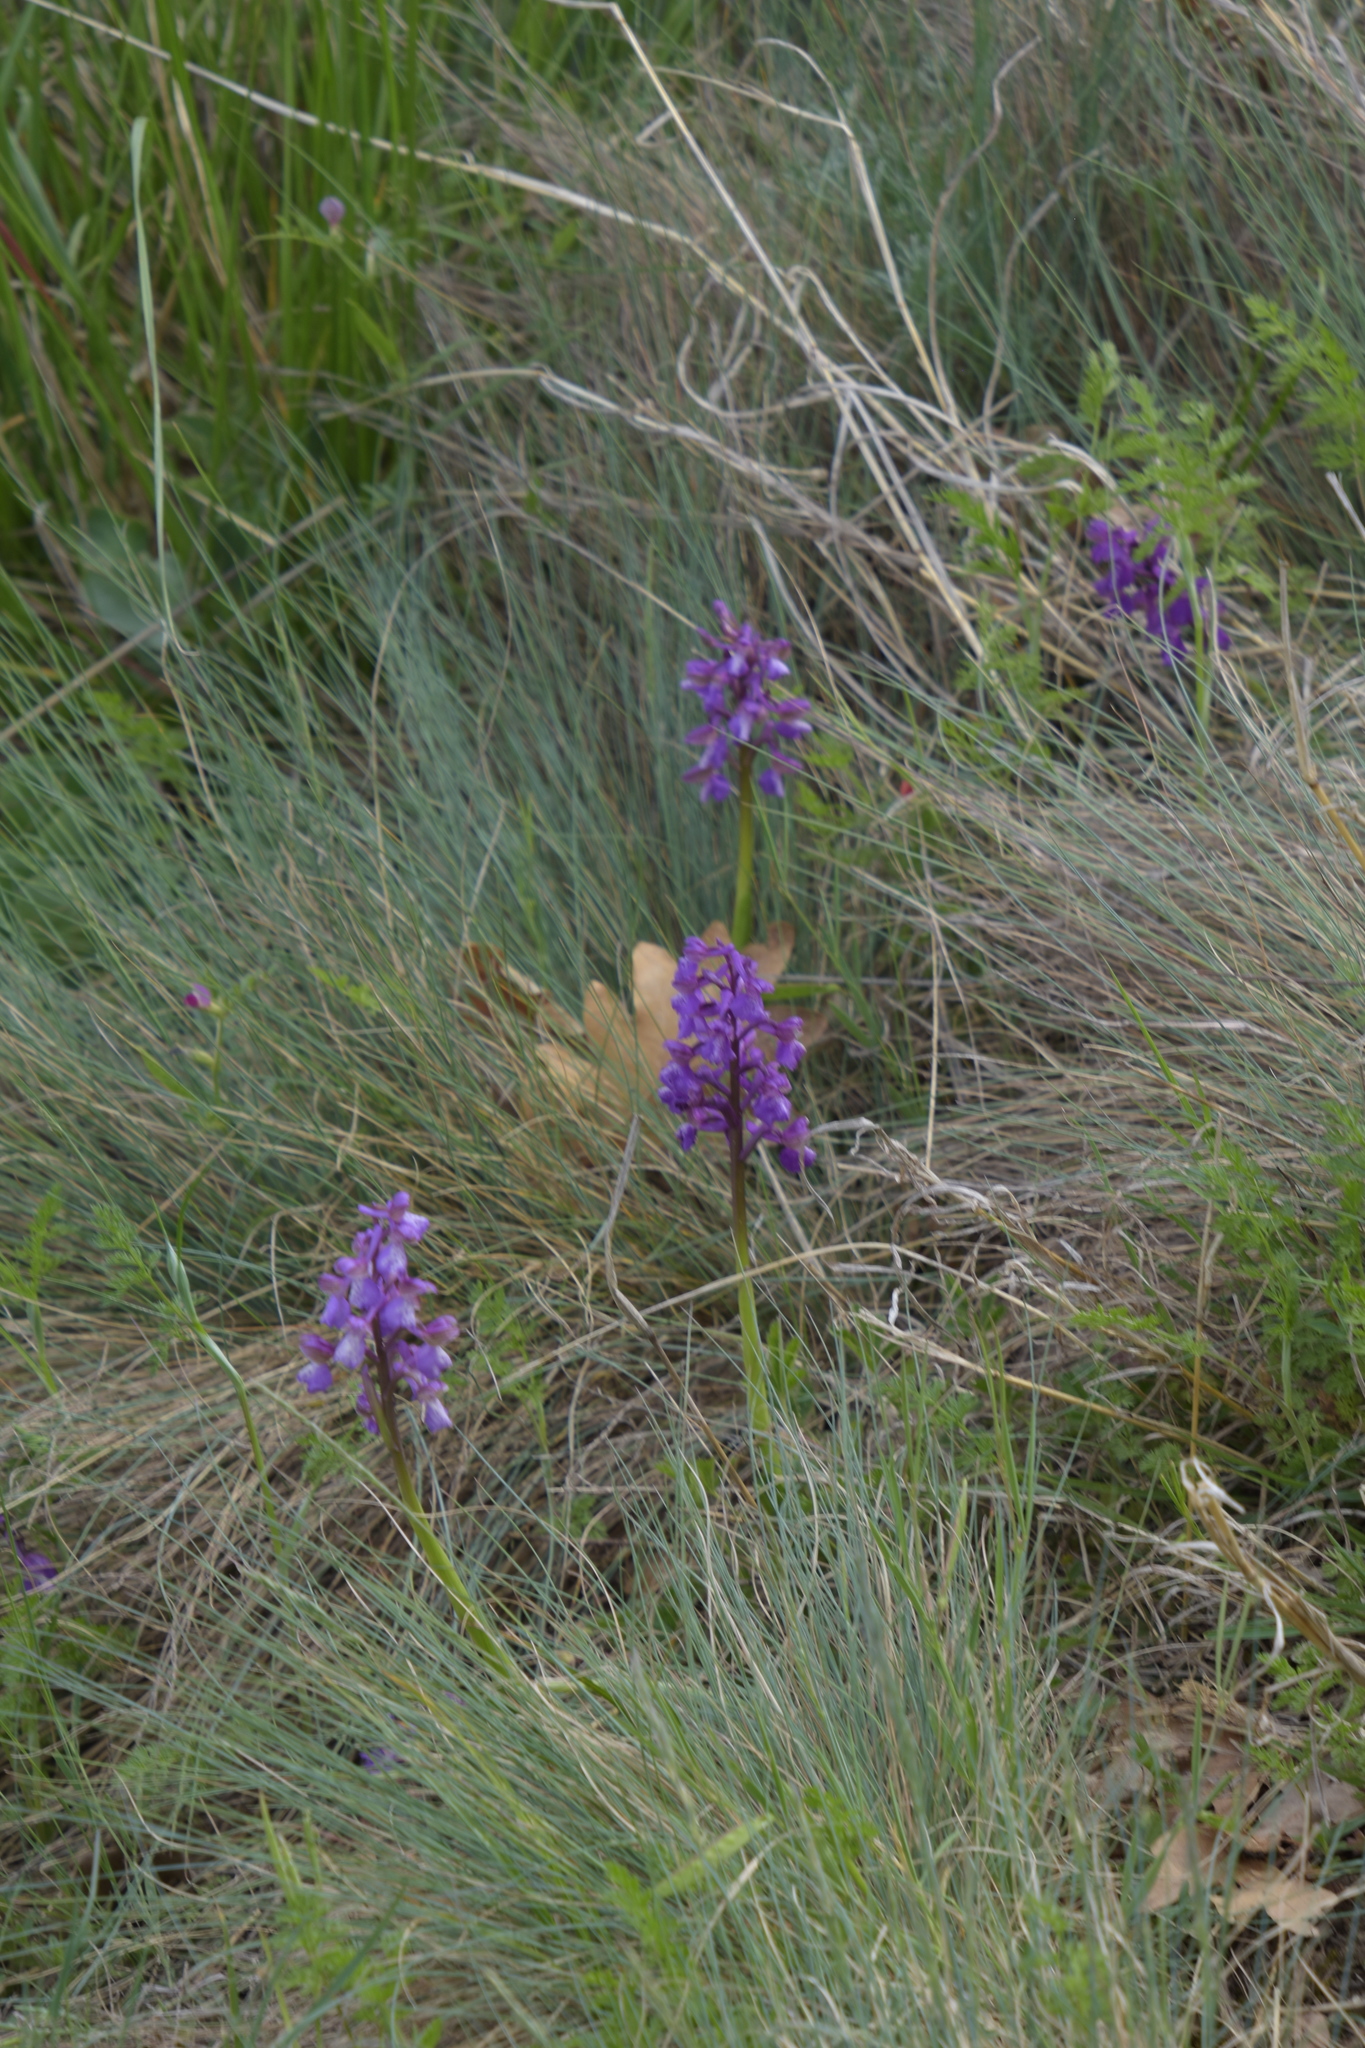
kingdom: Plantae
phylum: Tracheophyta
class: Liliopsida
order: Asparagales
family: Orchidaceae
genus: Anacamptis
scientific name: Anacamptis morio
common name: Green-winged orchid
